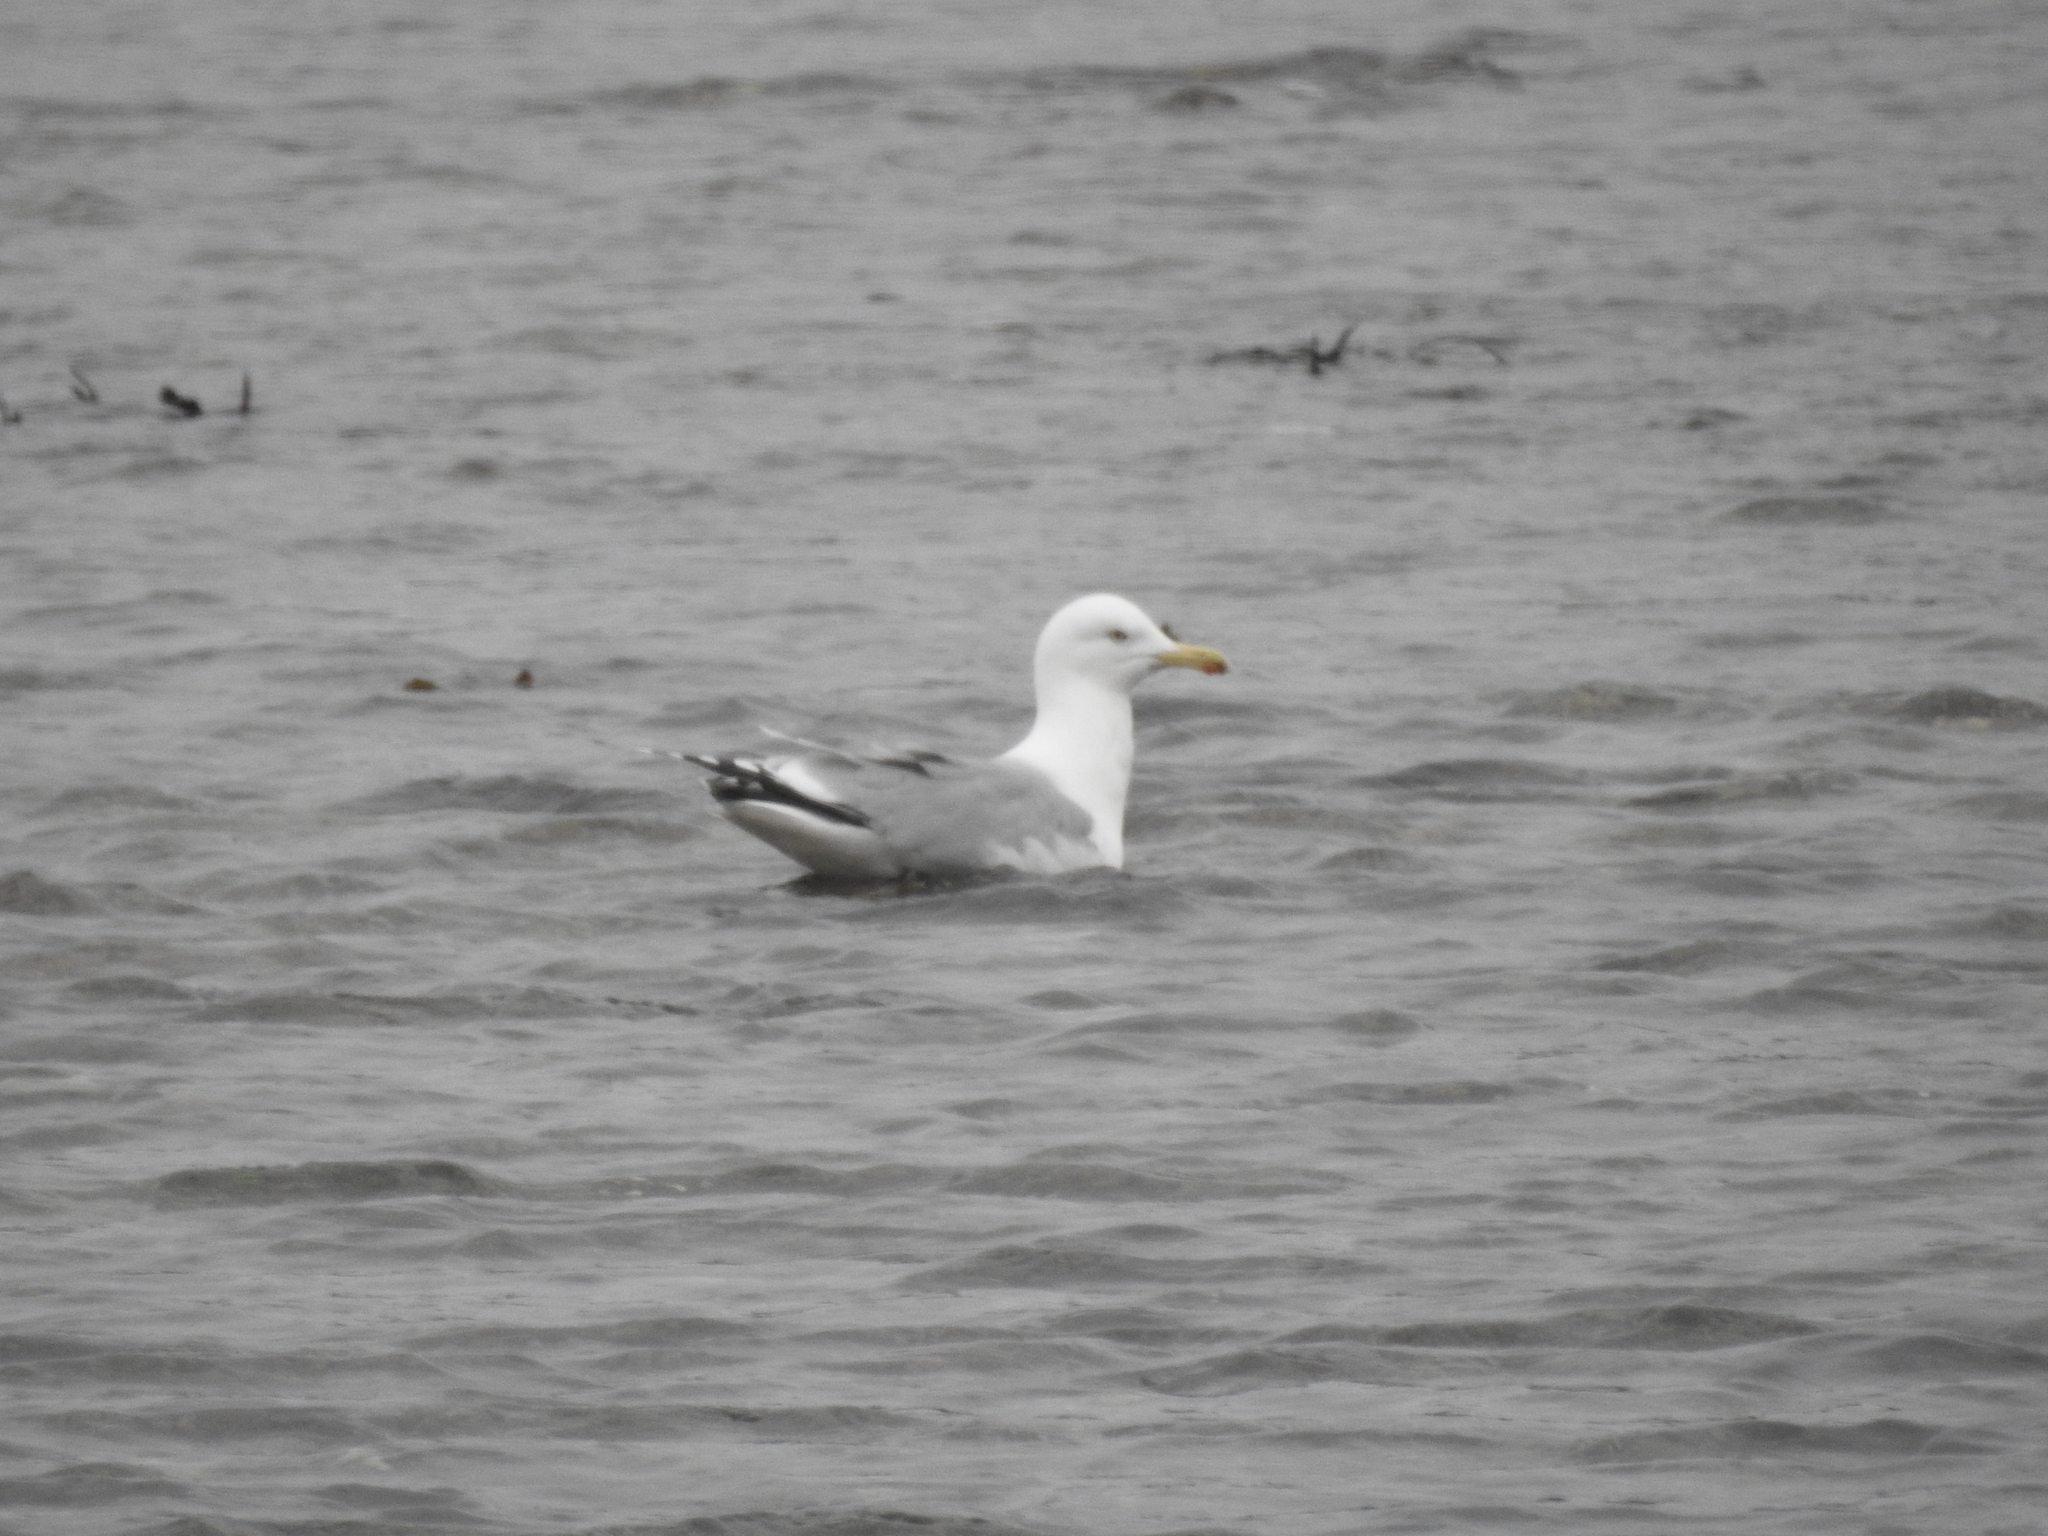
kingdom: Animalia
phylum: Chordata
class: Aves
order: Charadriiformes
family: Laridae
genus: Larus
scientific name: Larus argentatus
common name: Herring gull
